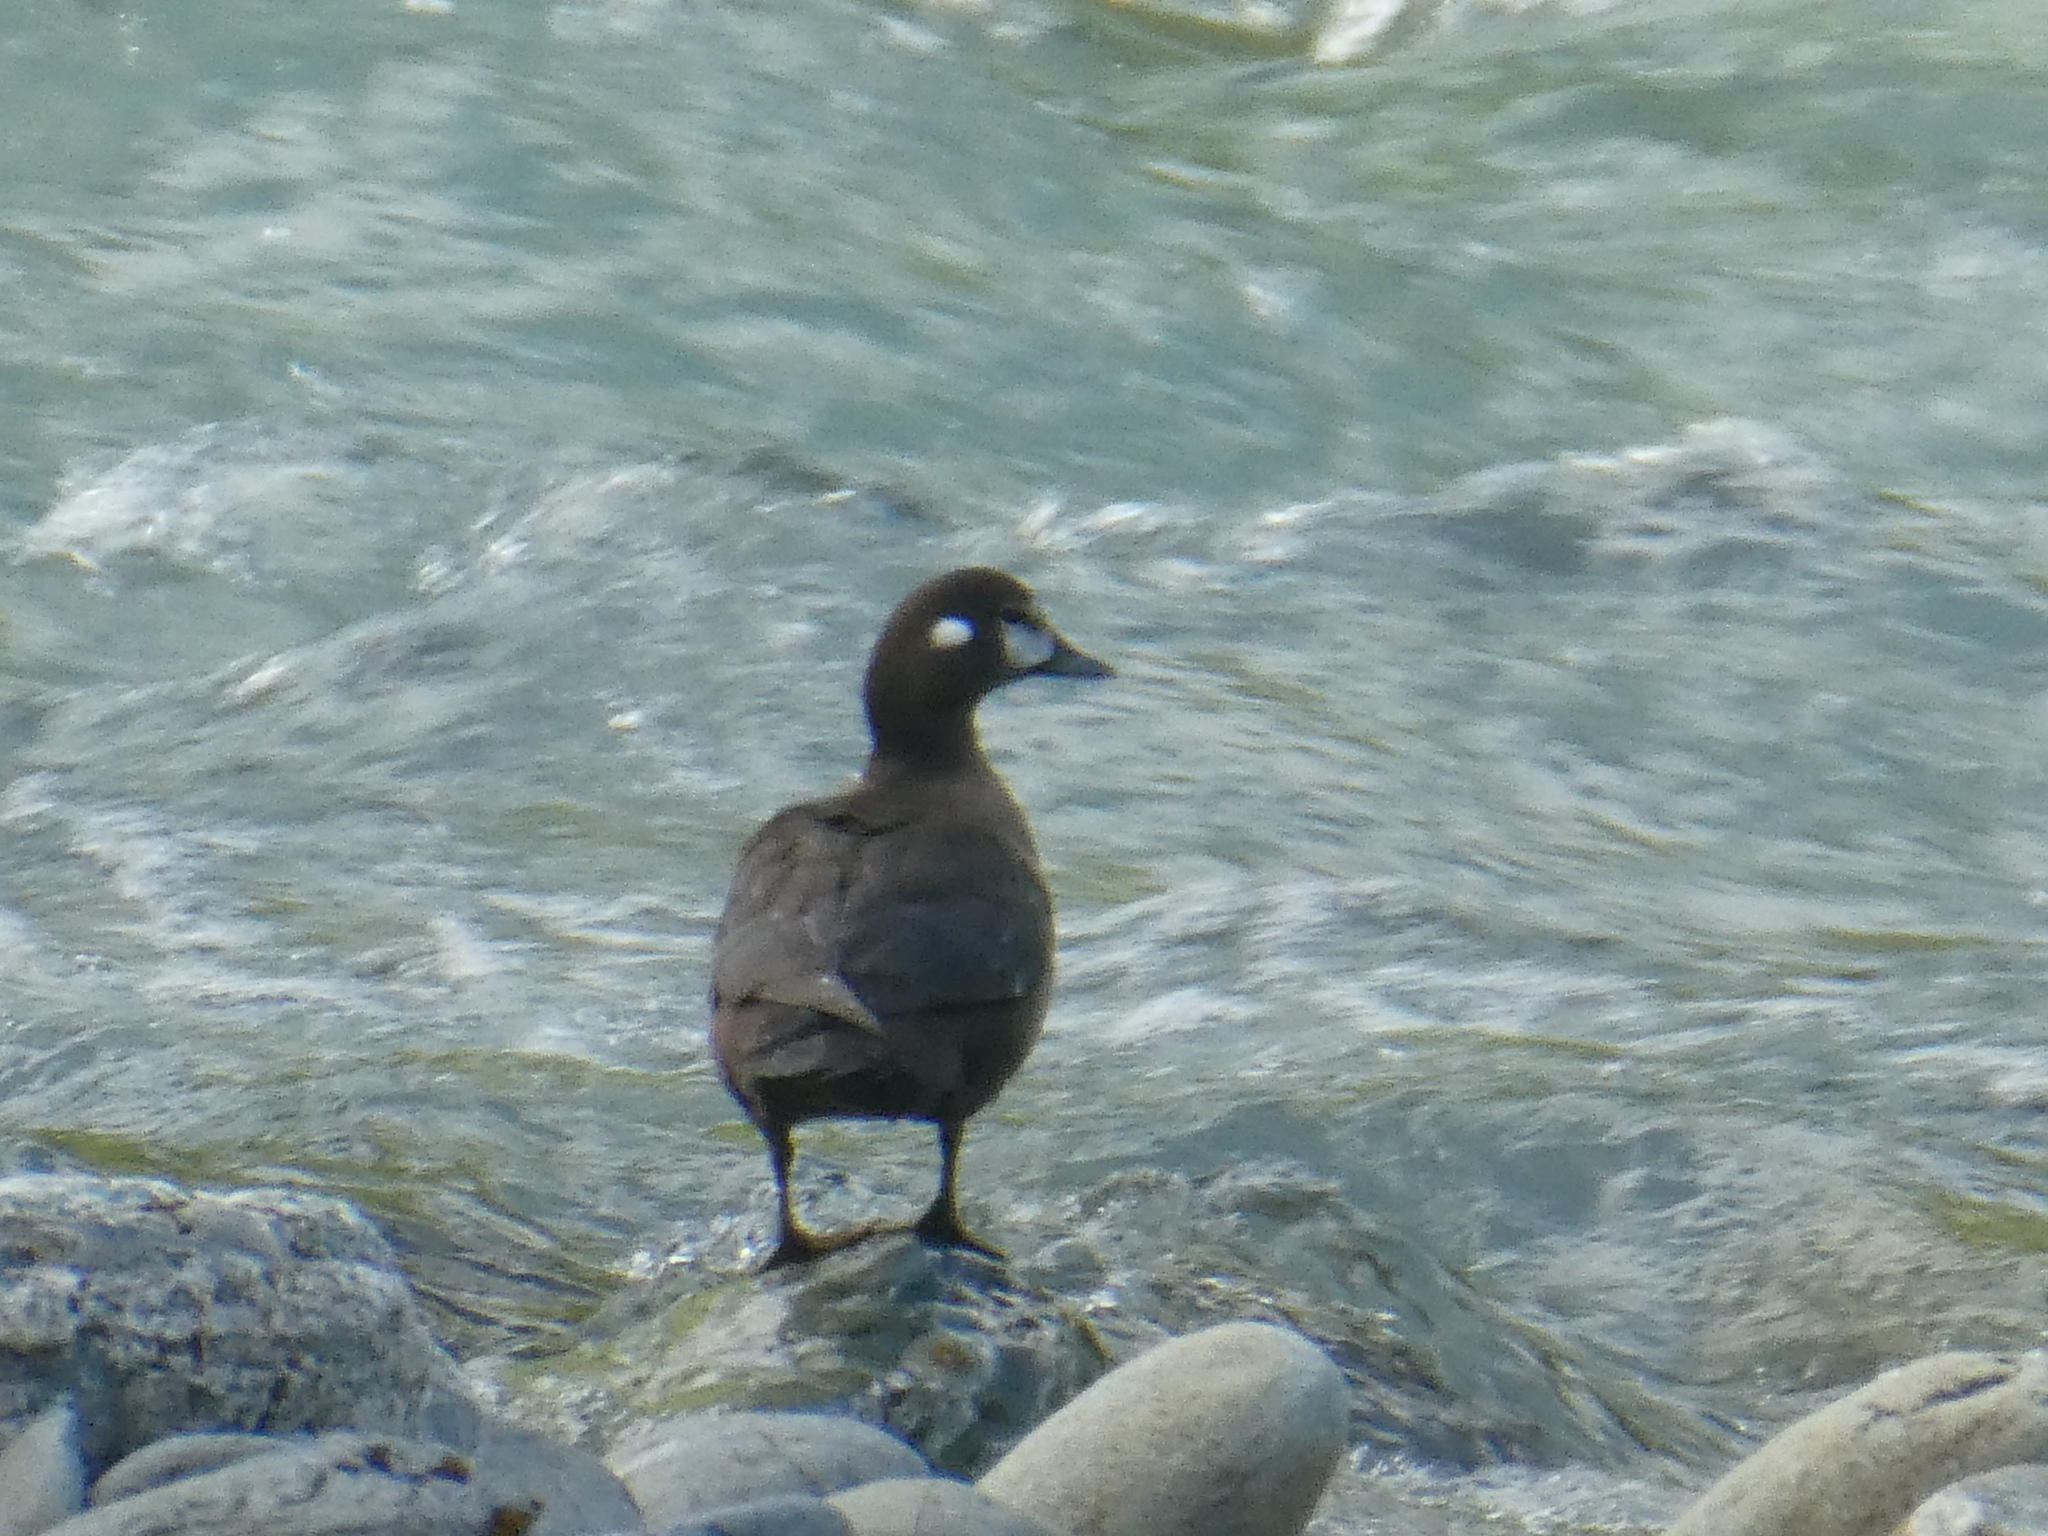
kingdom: Animalia
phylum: Chordata
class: Aves
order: Anseriformes
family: Anatidae
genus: Histrionicus
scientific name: Histrionicus histrionicus
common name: Harlequin duck
